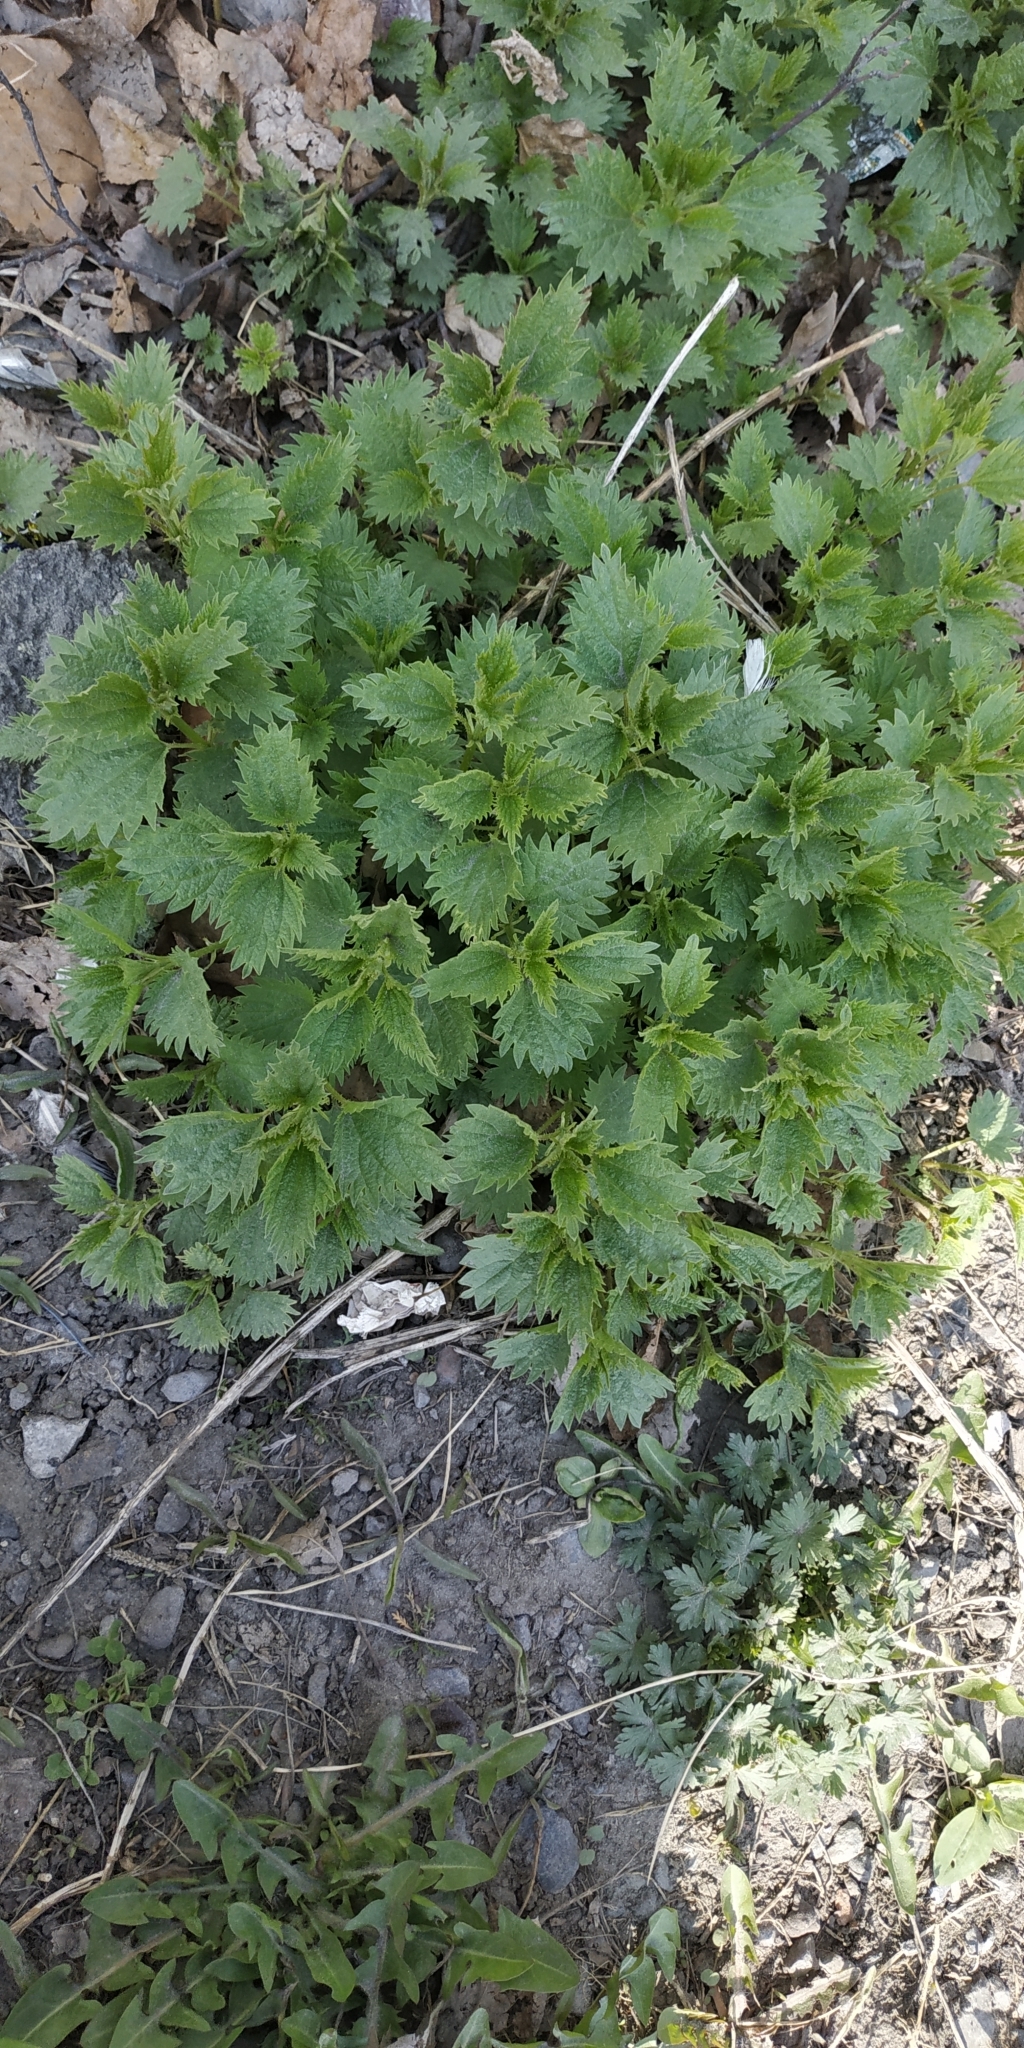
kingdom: Plantae
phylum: Tracheophyta
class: Magnoliopsida
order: Rosales
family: Urticaceae
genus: Urtica
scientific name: Urtica dioica
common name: Common nettle
